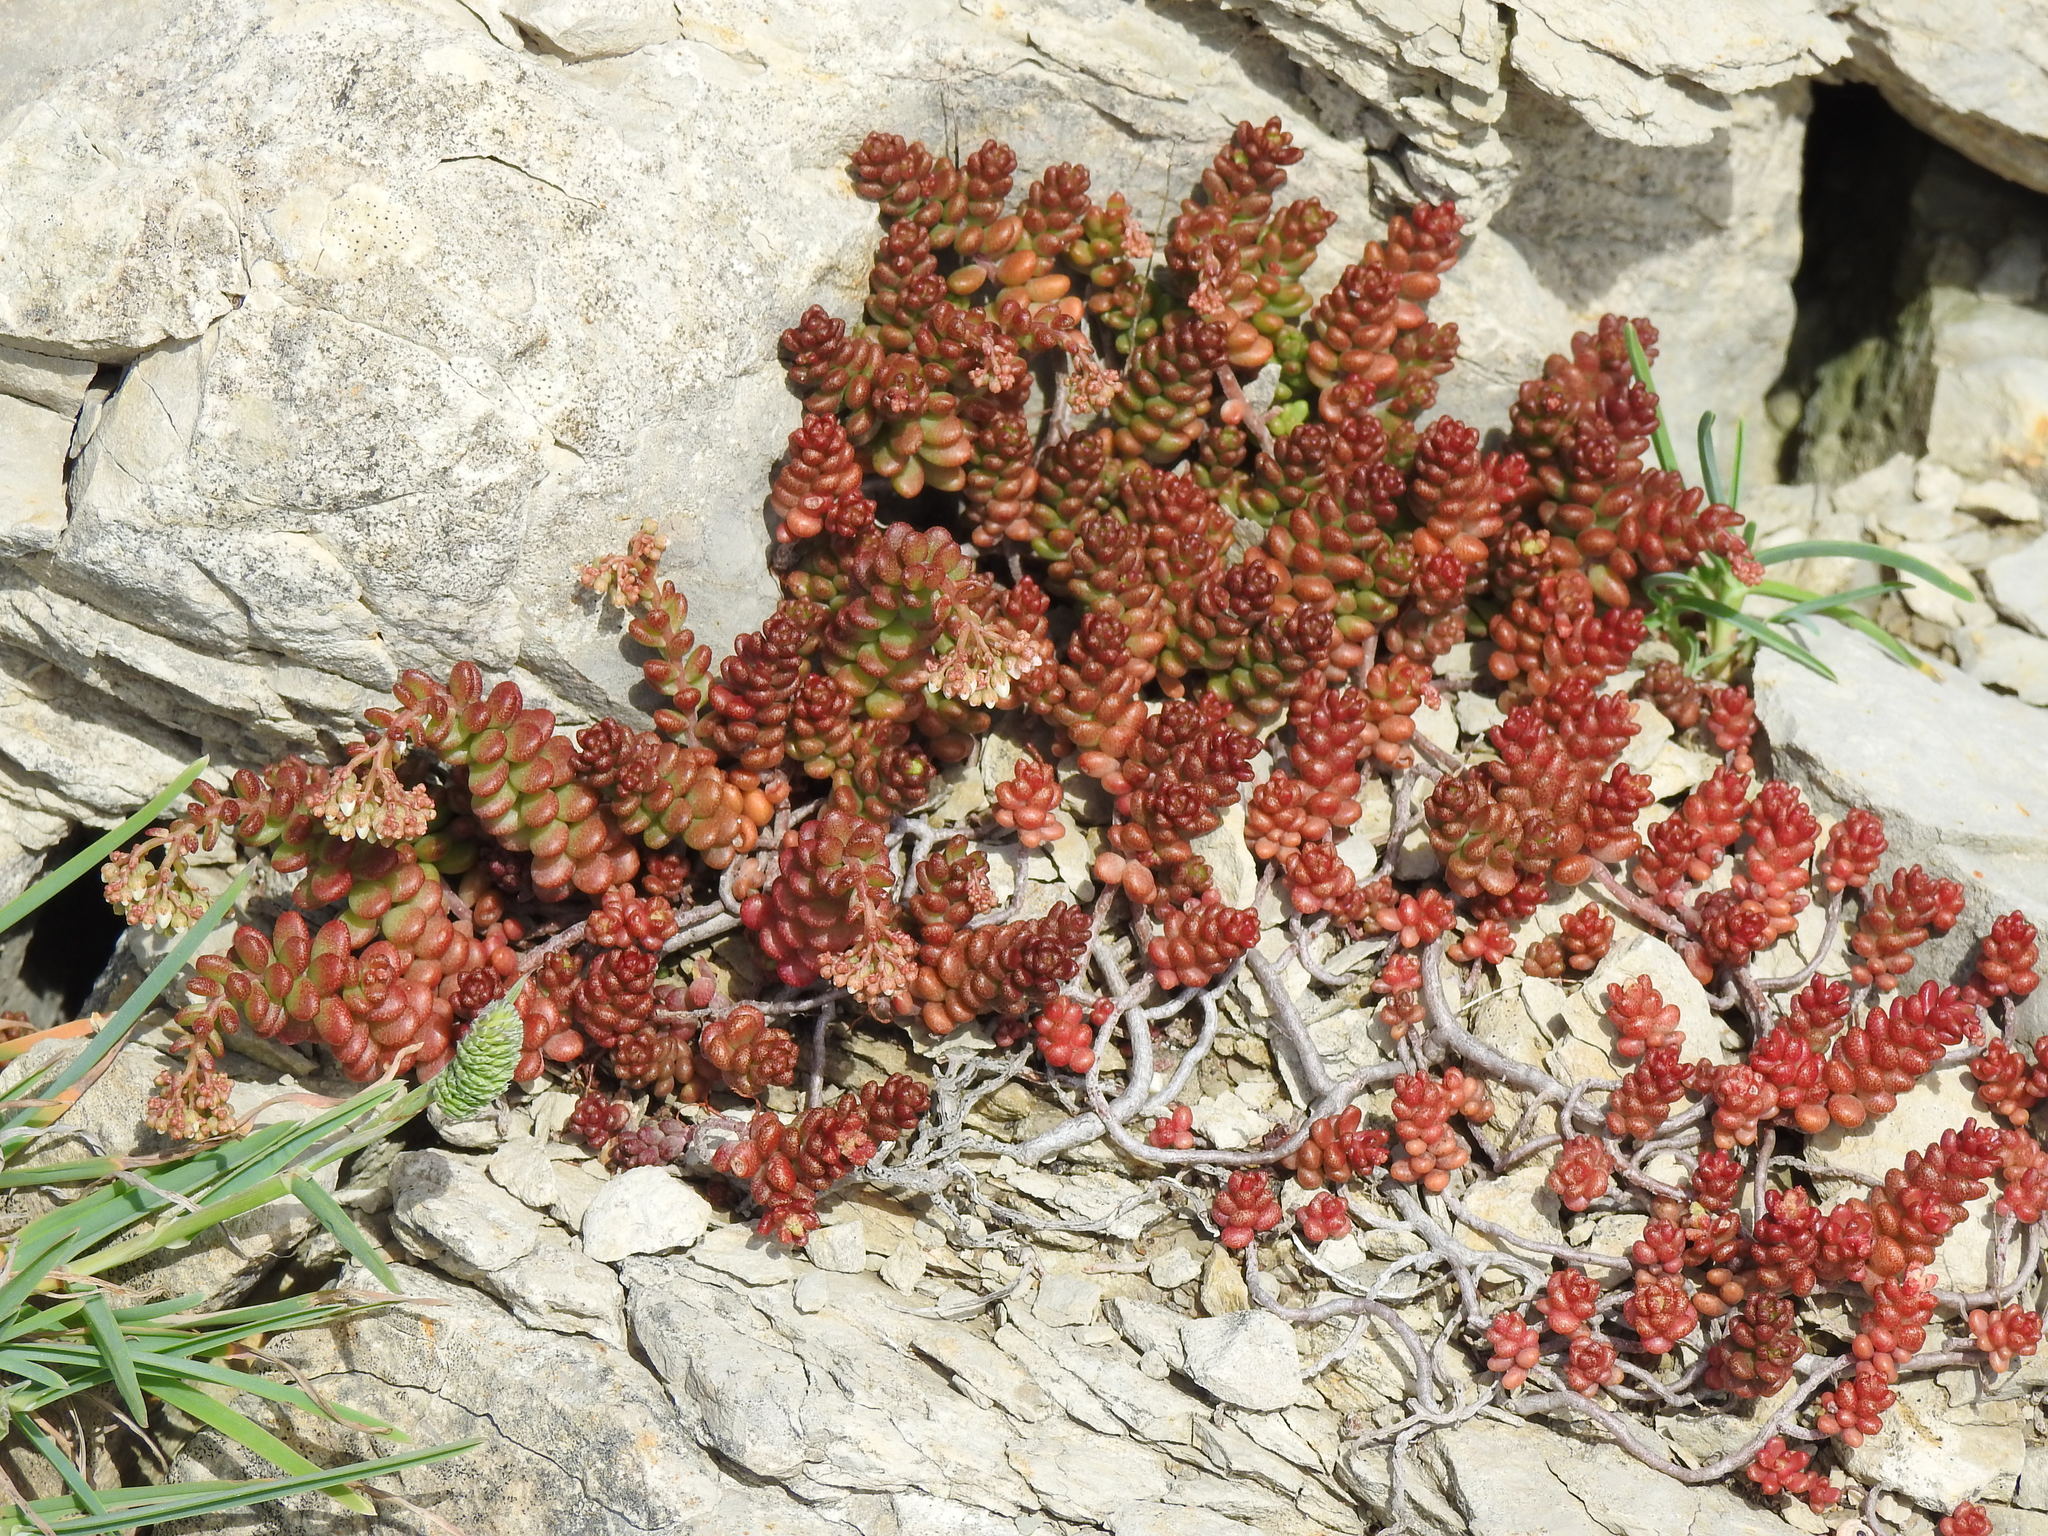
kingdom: Plantae
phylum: Tracheophyta
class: Magnoliopsida
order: Saxifragales
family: Crassulaceae
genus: Sedum
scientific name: Sedum album
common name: White stonecrop
